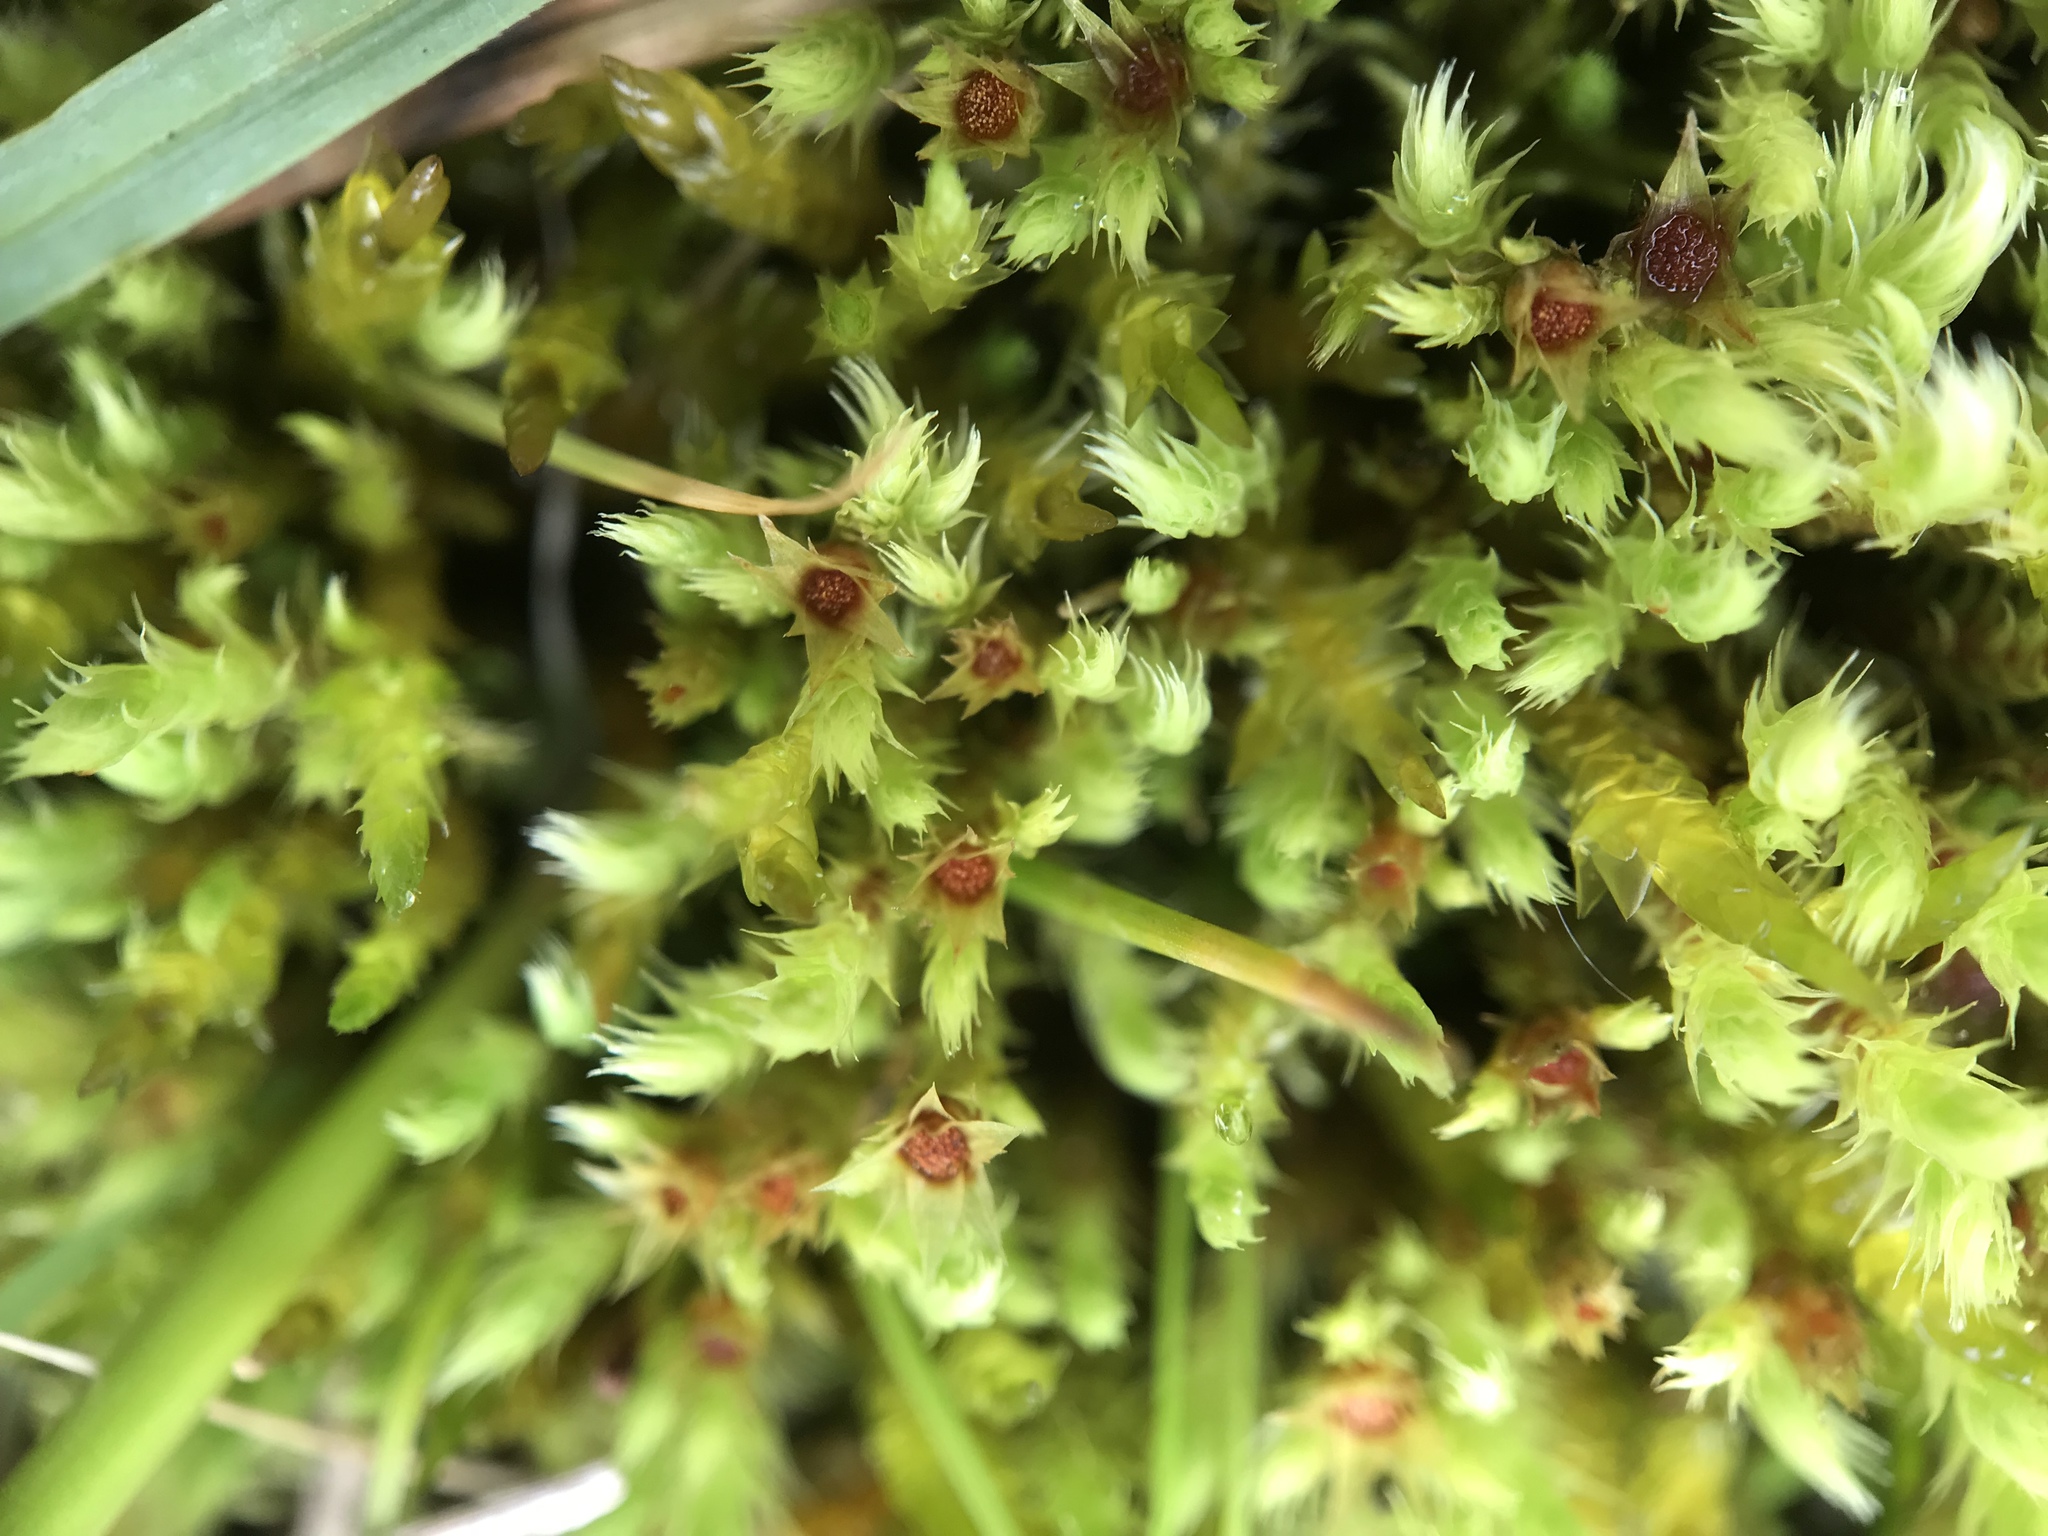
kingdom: Plantae
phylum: Bryophyta
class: Bryopsida
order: Bartramiales
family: Bartramiaceae
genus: Philonotis
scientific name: Philonotis calcarea
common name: Thick-nerved apple-moss
